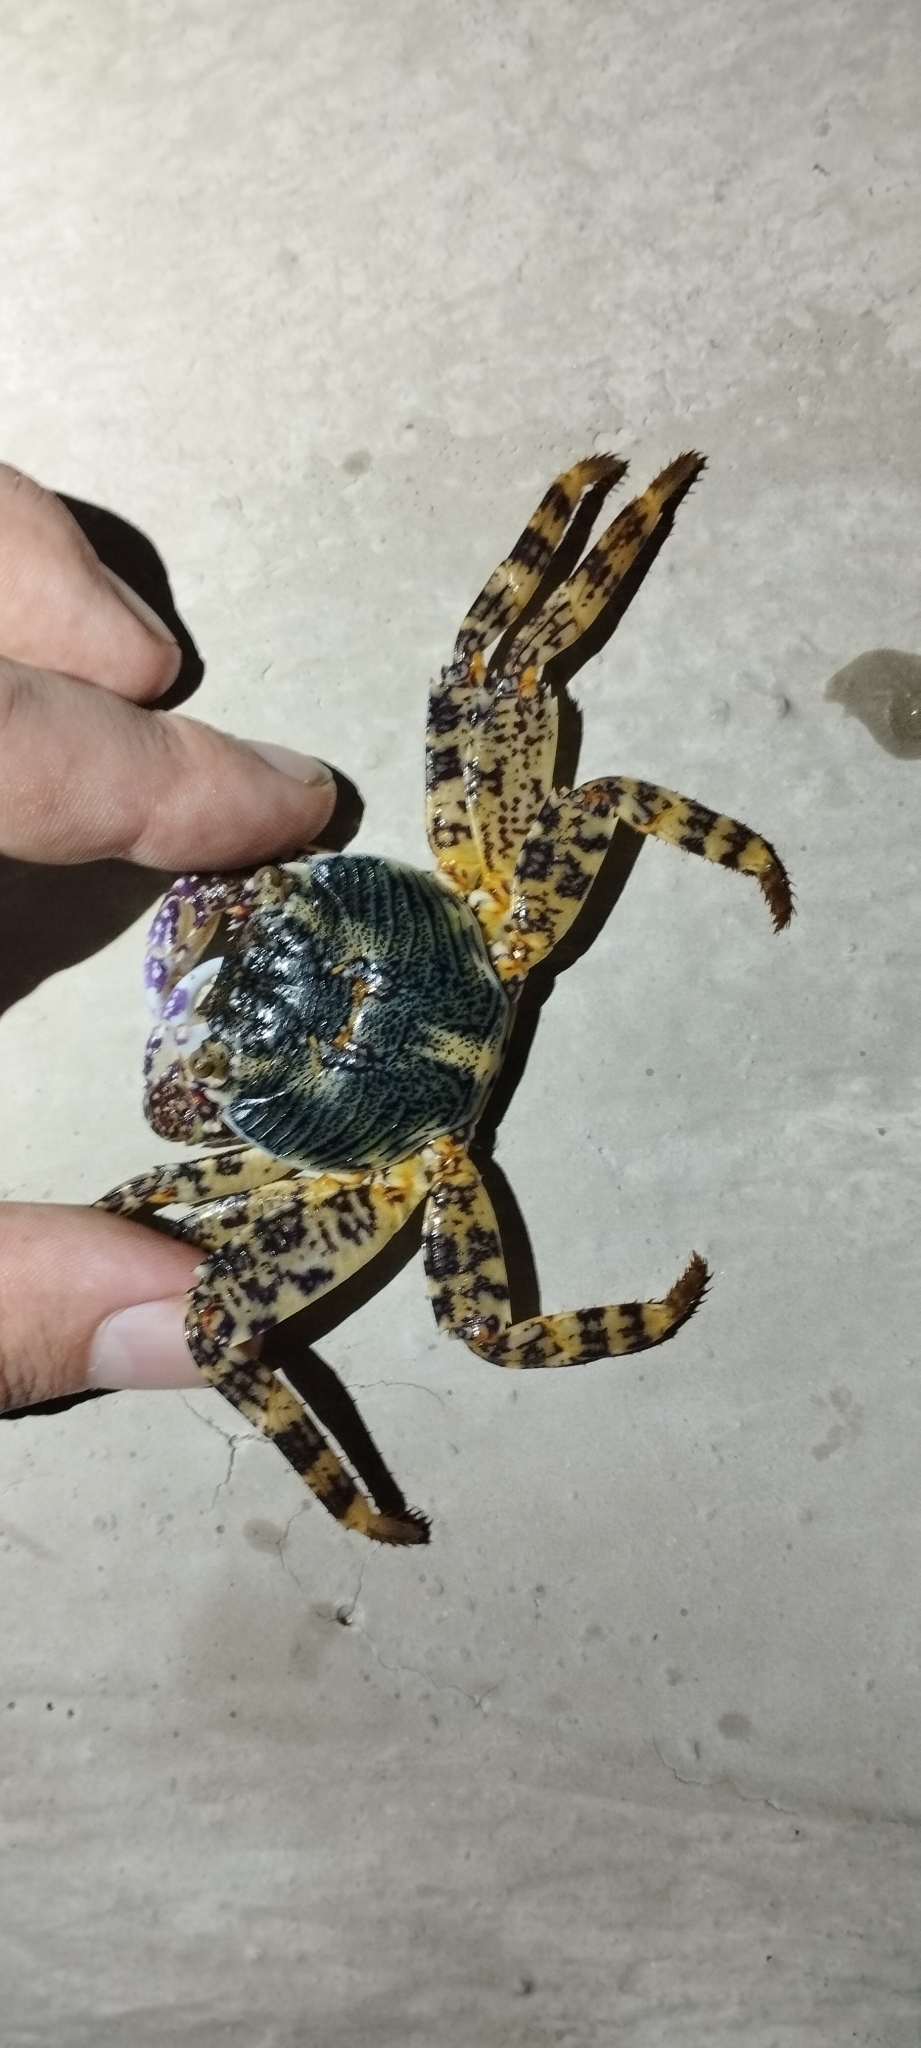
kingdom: Animalia
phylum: Arthropoda
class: Malacostraca
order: Decapoda
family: Grapsidae
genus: Grapsus
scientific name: Grapsus albolineatus
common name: Mottled lightfoot crab
